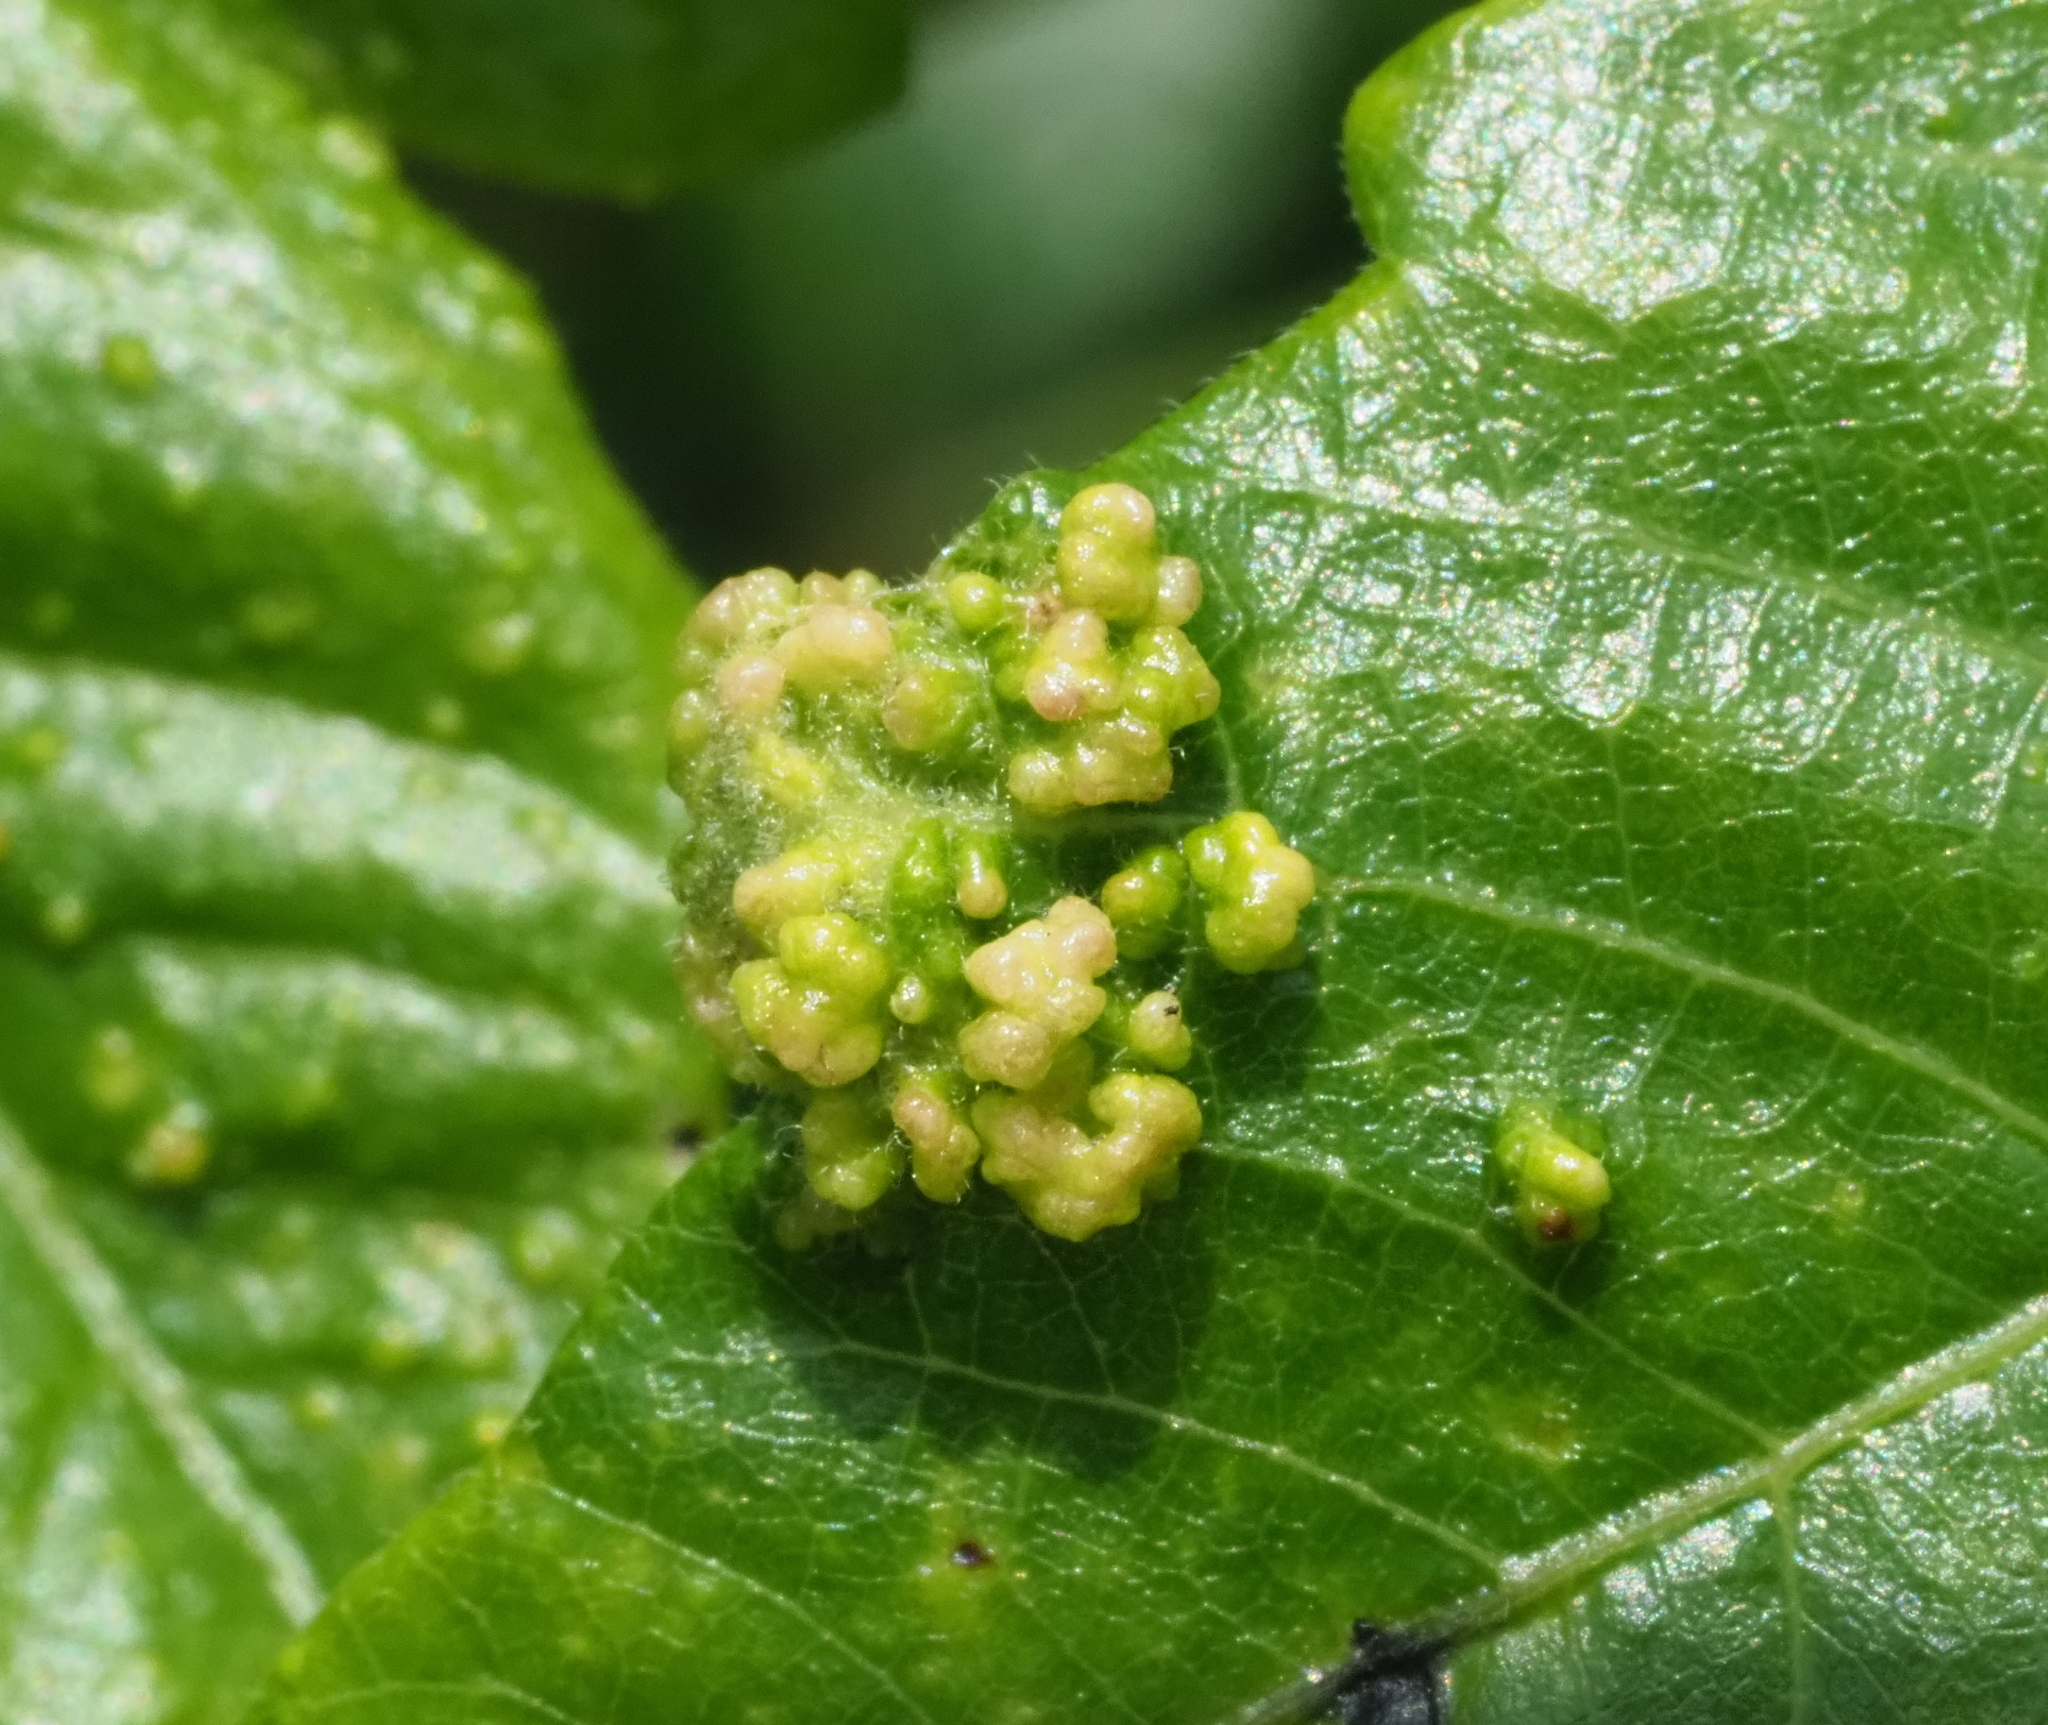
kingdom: Animalia
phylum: Arthropoda
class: Arachnida
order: Trombidiformes
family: Eriophyidae
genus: Aculops
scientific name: Aculops
